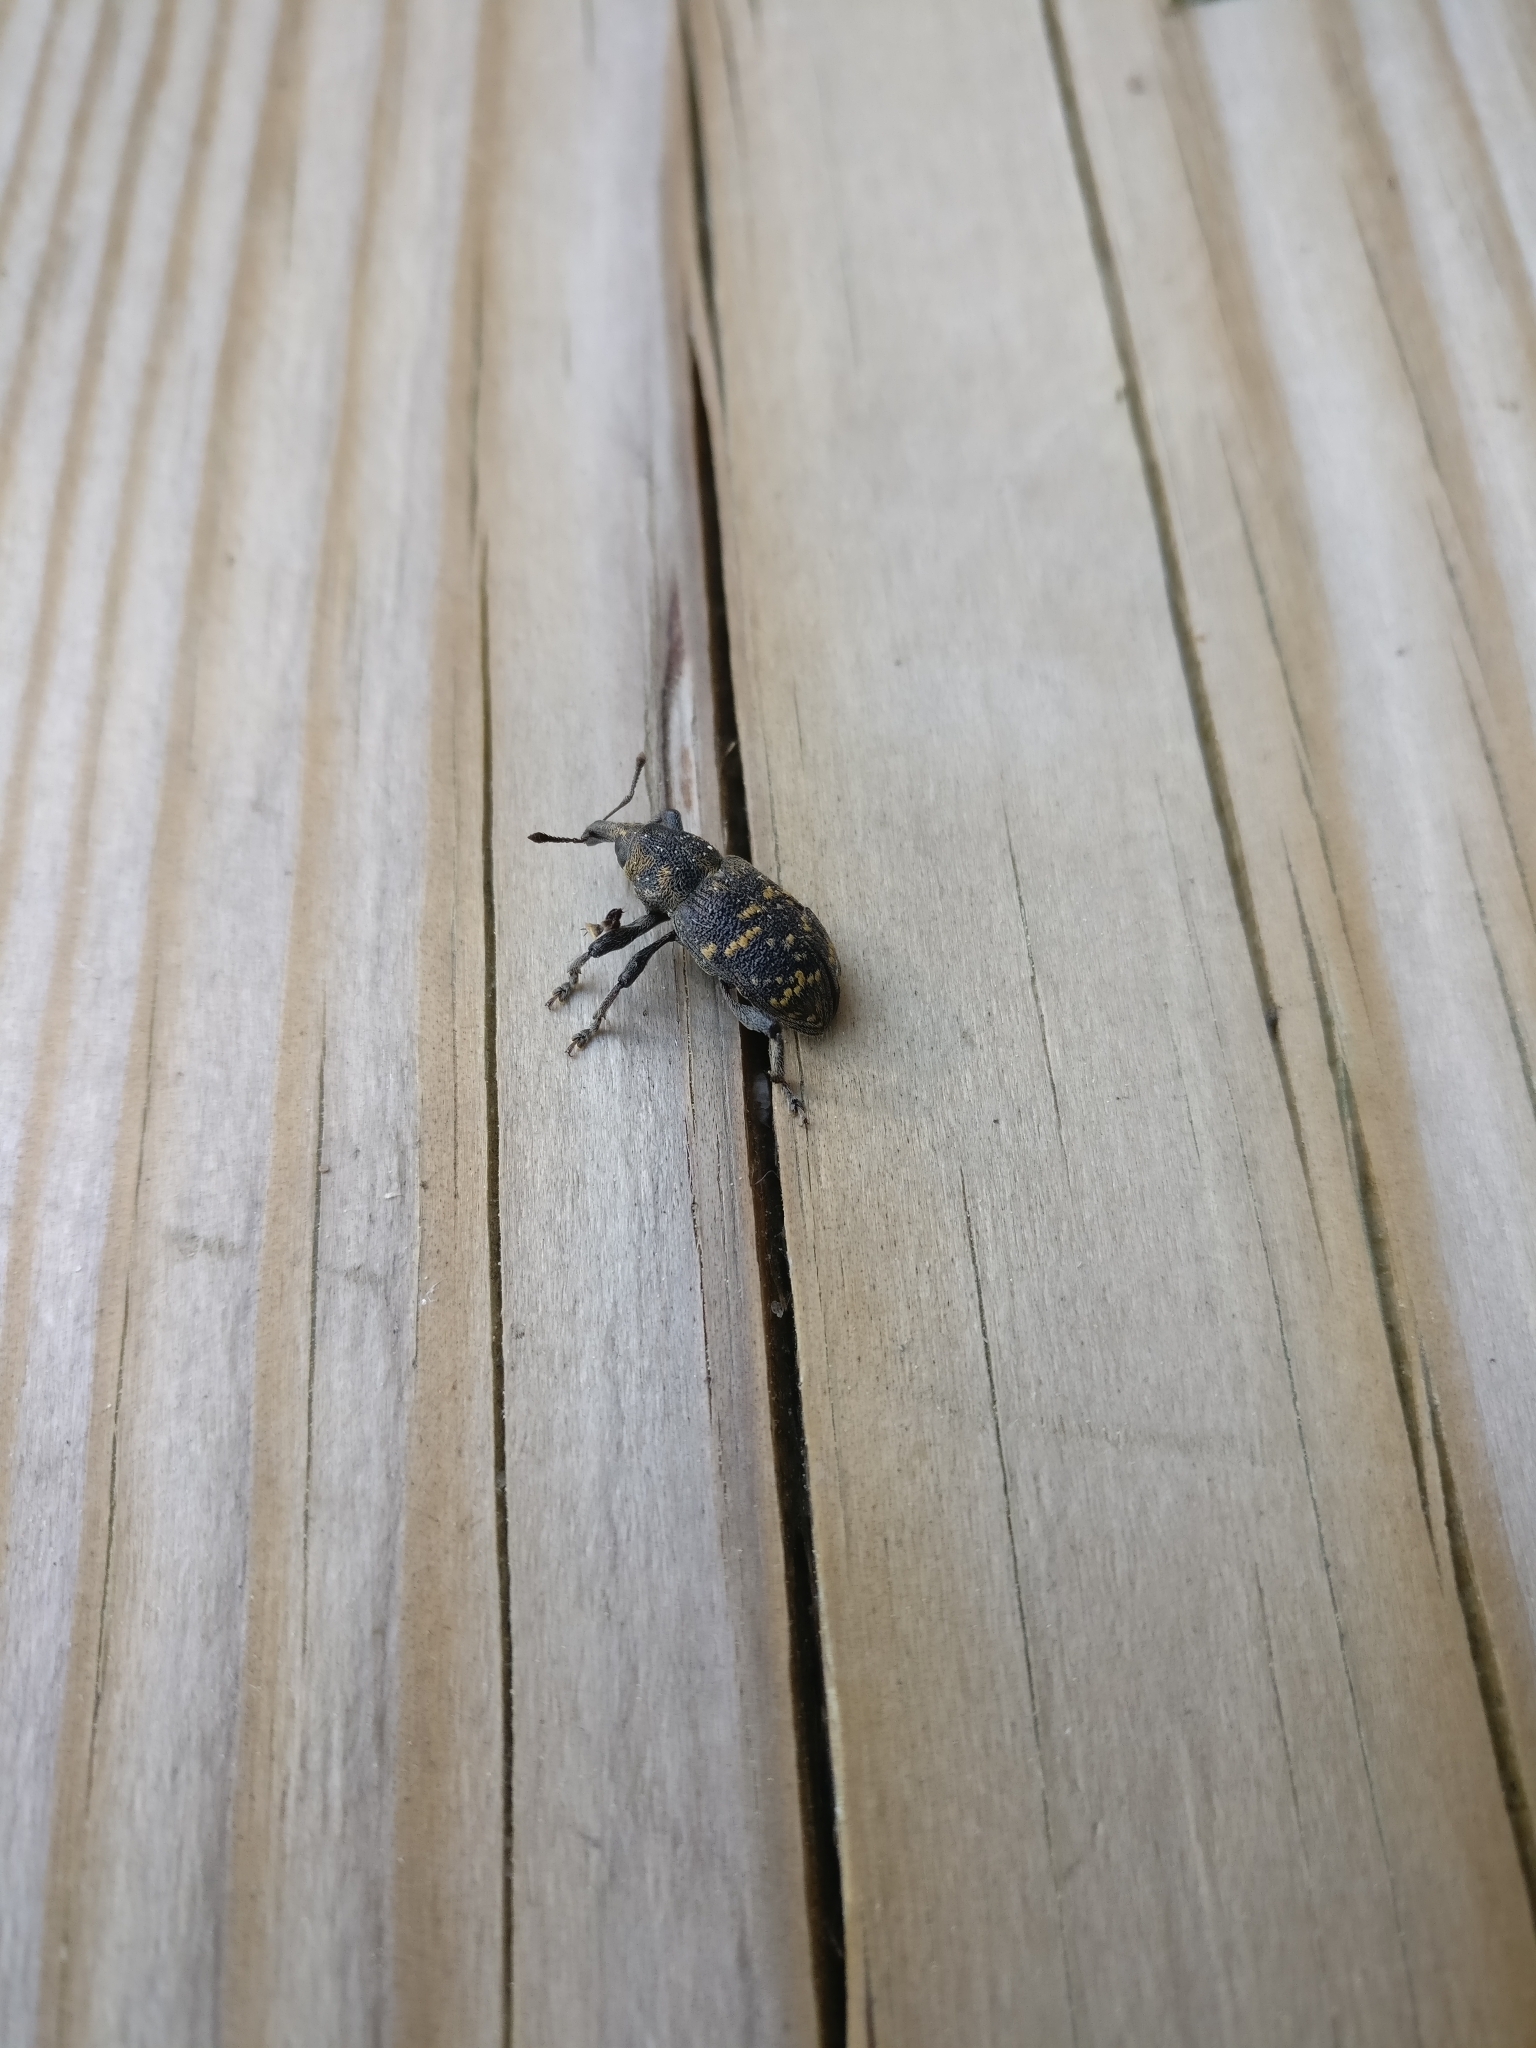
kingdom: Animalia
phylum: Arthropoda
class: Insecta
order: Coleoptera
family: Curculionidae
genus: Hylobius
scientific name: Hylobius abietis
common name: Large pine weevil
